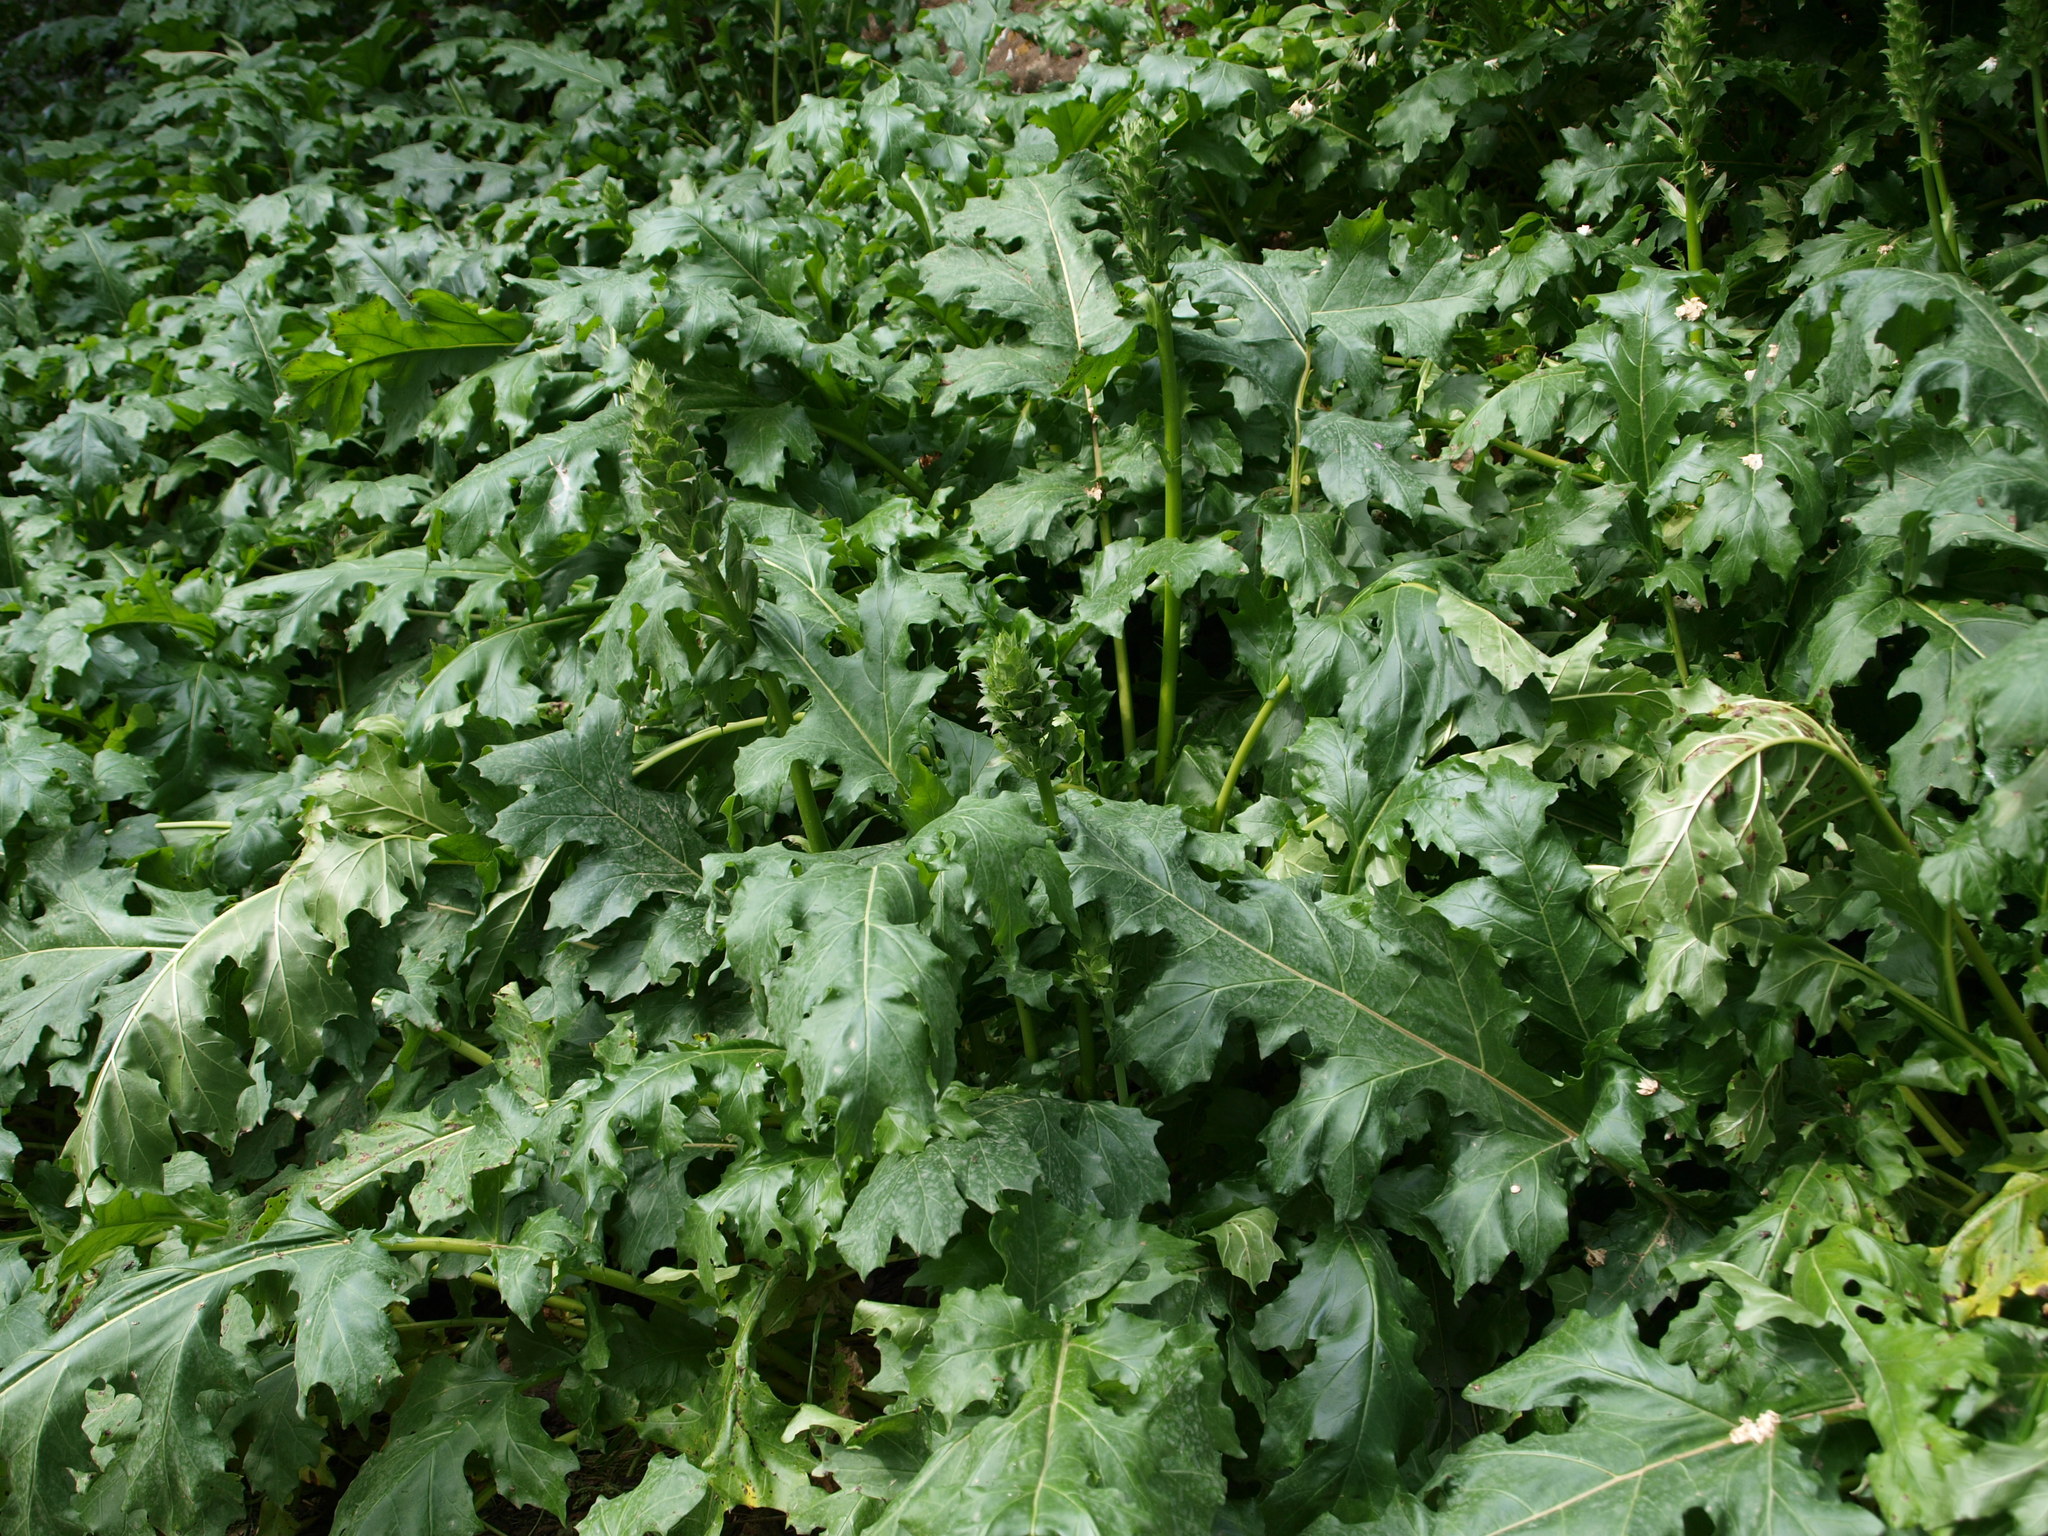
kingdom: Plantae
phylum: Tracheophyta
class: Magnoliopsida
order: Lamiales
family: Acanthaceae
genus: Acanthus
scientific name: Acanthus mollis
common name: Bear's-breech
